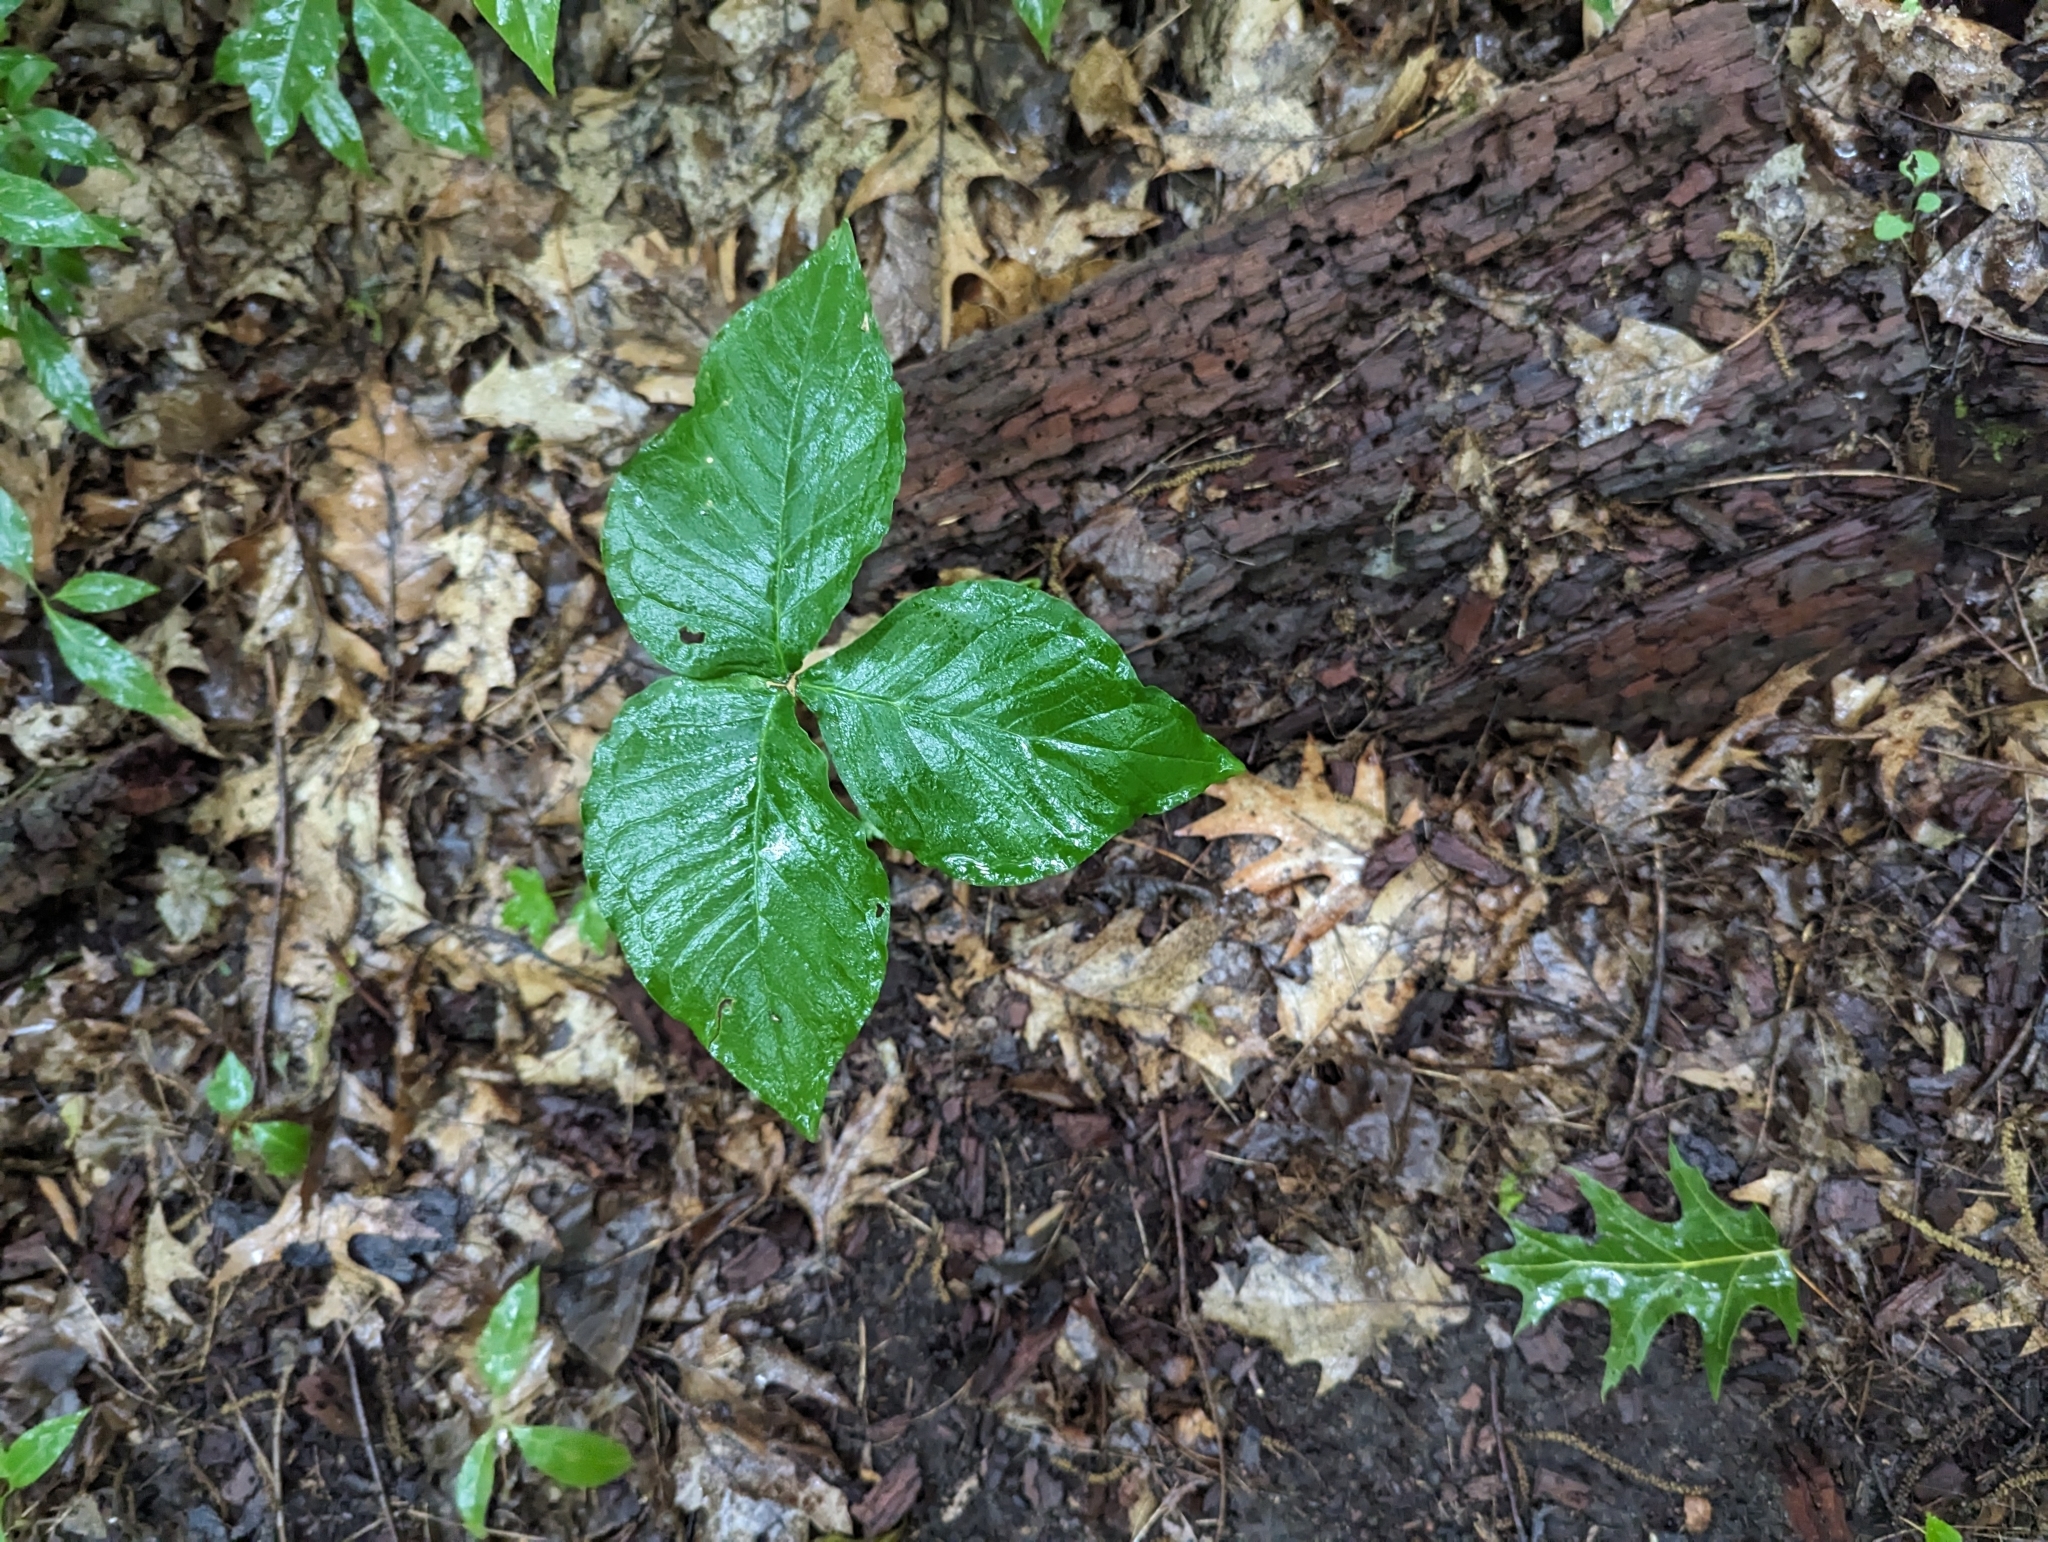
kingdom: Plantae
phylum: Tracheophyta
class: Liliopsida
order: Alismatales
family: Araceae
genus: Arisaema
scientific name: Arisaema triphyllum
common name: Jack-in-the-pulpit
